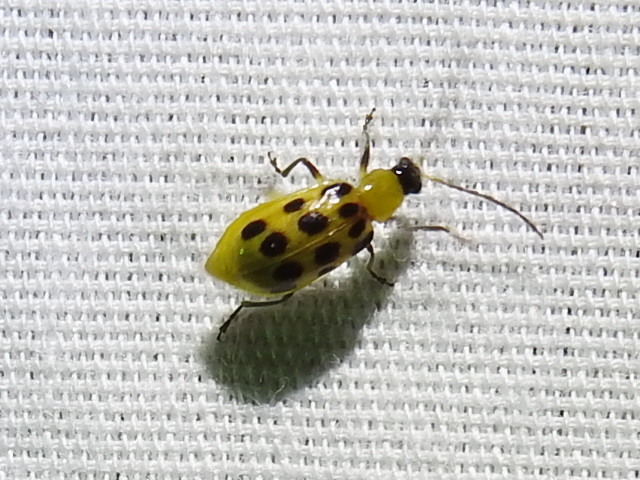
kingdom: Animalia
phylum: Arthropoda
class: Insecta
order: Coleoptera
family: Chrysomelidae
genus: Diabrotica
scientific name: Diabrotica undecimpunctata
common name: Spotted cucumber beetle
